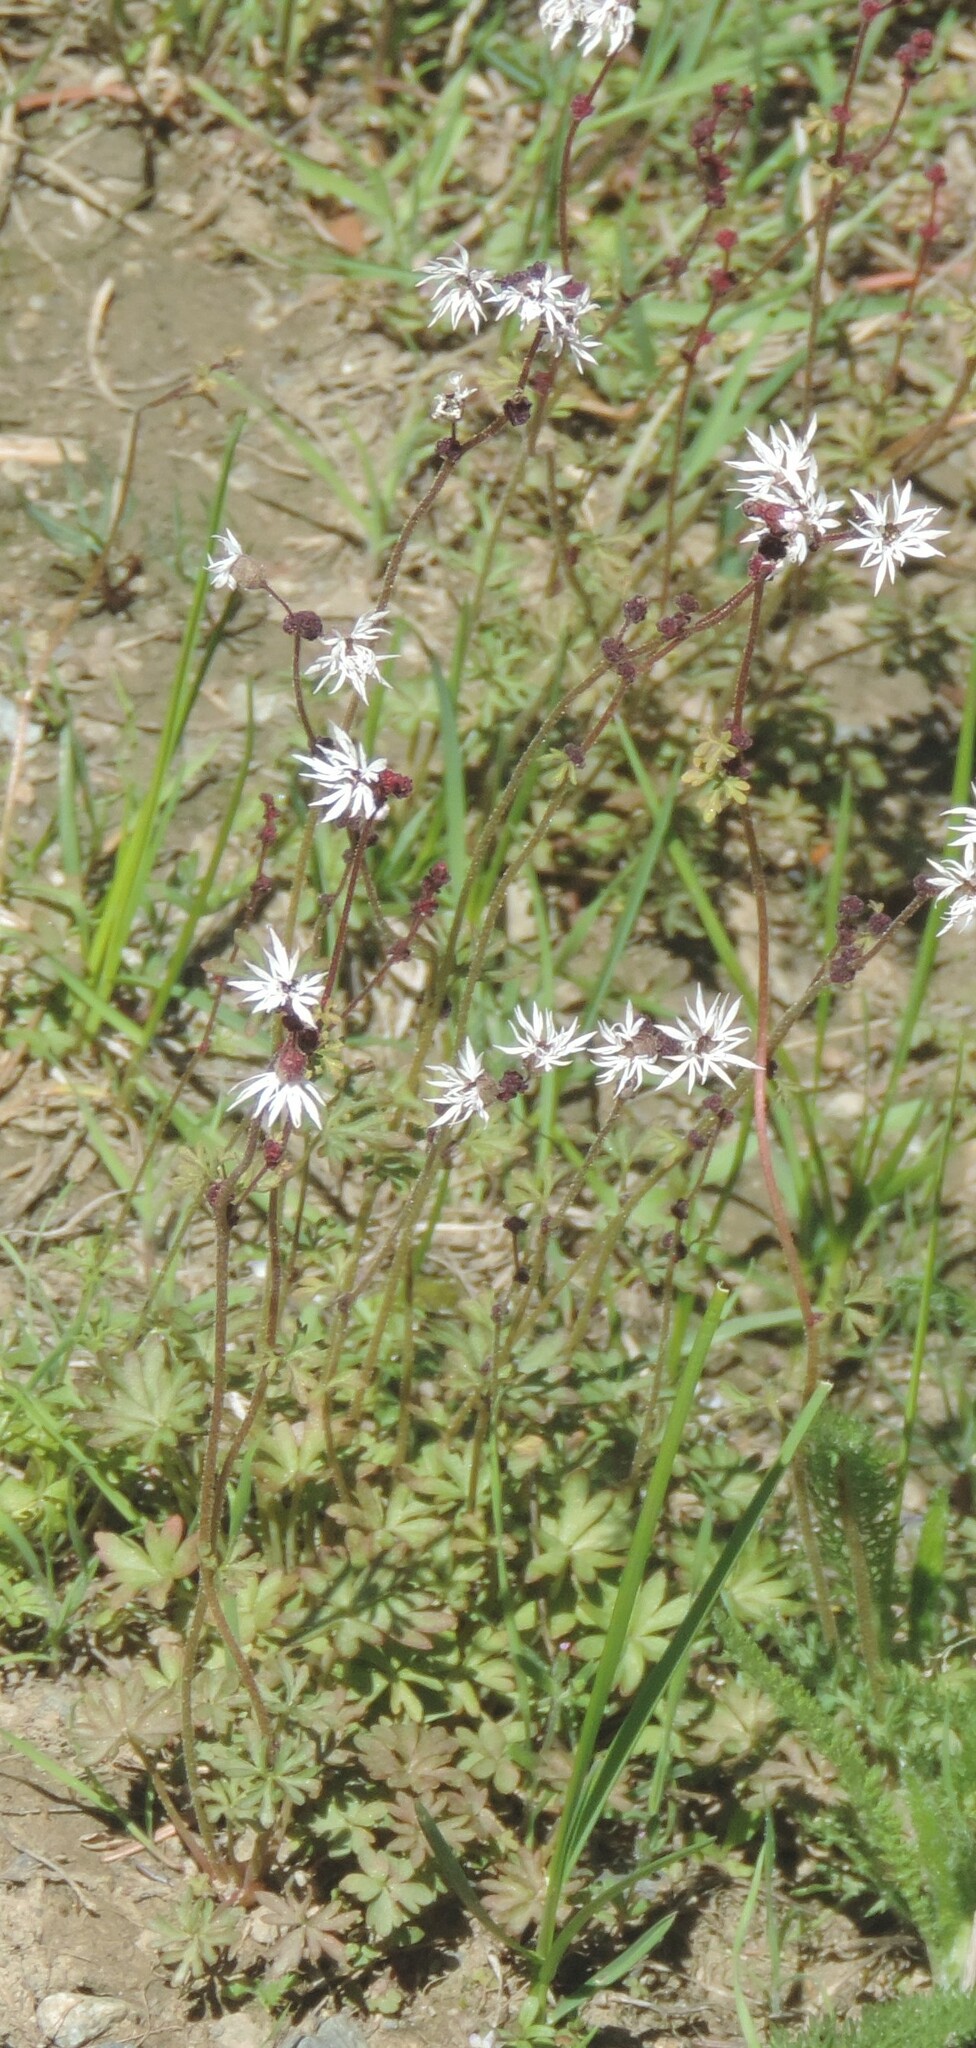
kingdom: Plantae
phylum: Tracheophyta
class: Magnoliopsida
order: Saxifragales
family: Saxifragaceae
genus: Lithophragma
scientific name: Lithophragma glabrum
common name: Bulbous prairie-star
